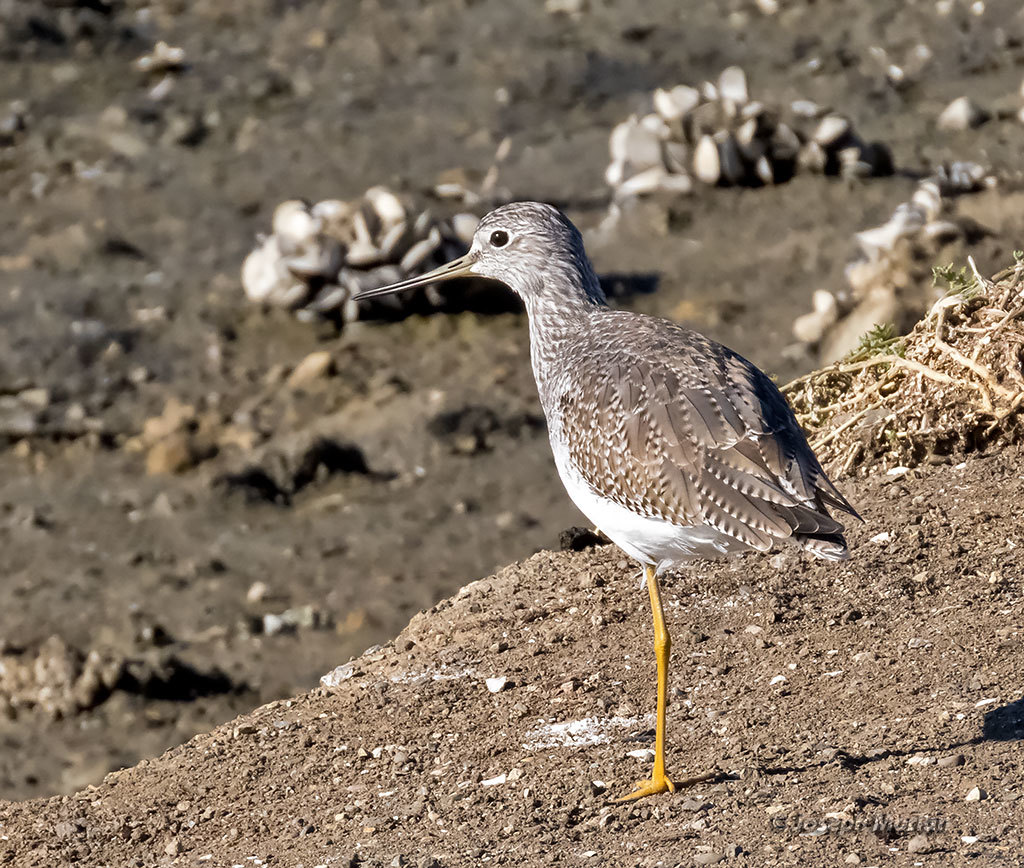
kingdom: Animalia
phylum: Chordata
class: Aves
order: Charadriiformes
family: Scolopacidae
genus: Tringa
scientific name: Tringa melanoleuca
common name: Greater yellowlegs
